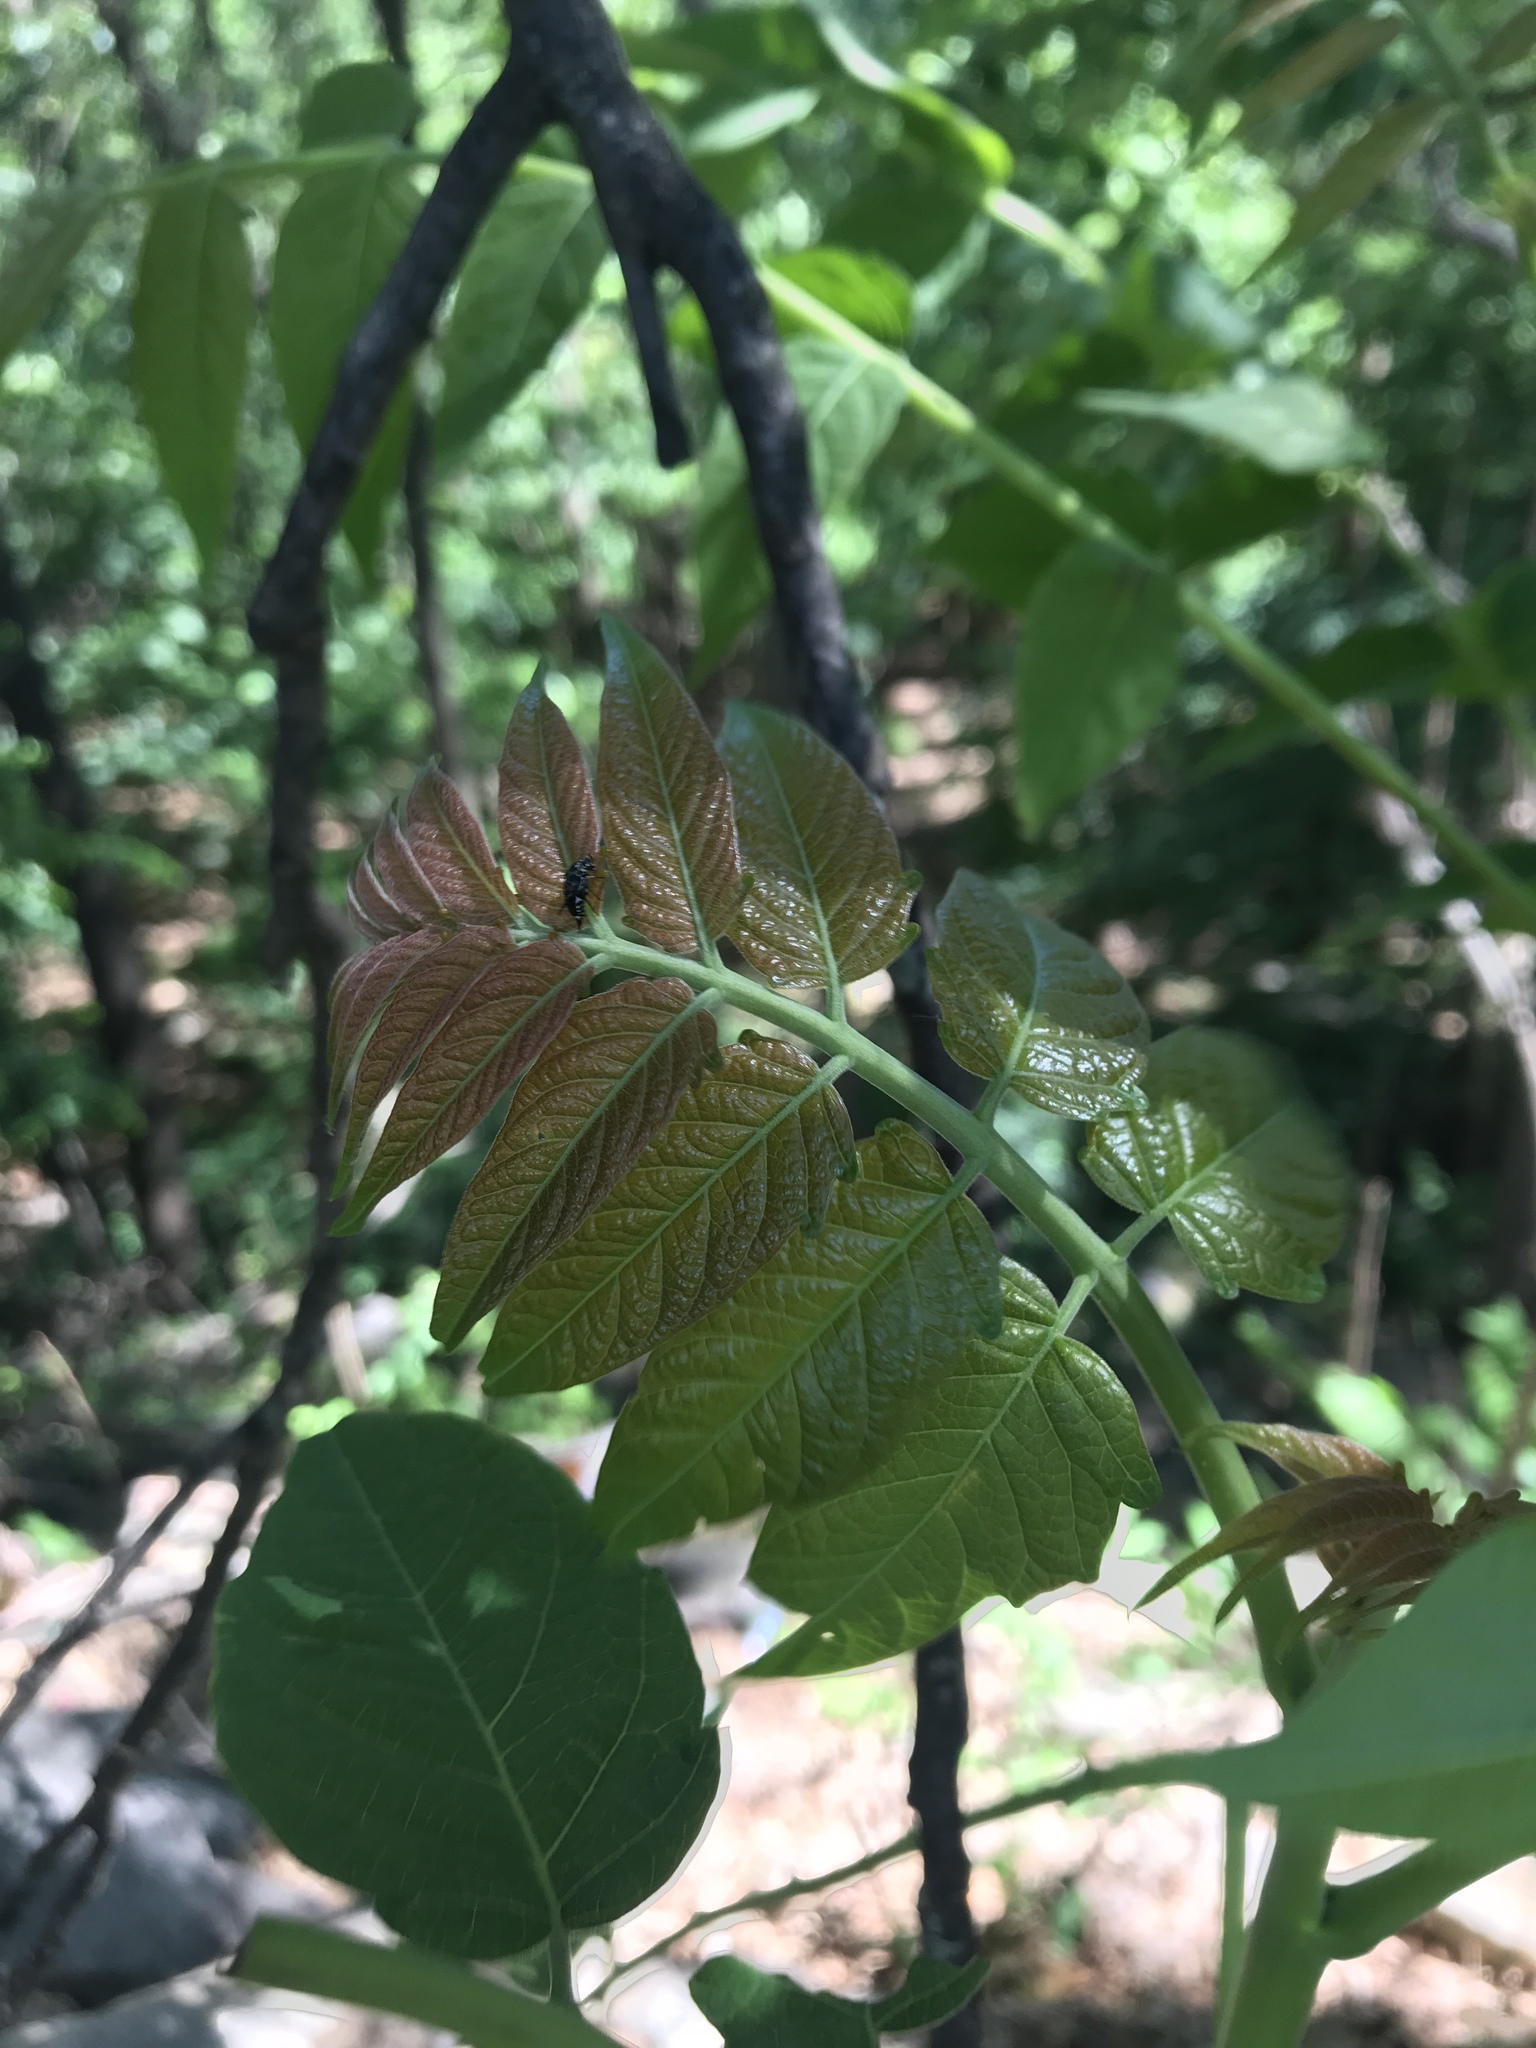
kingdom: Plantae
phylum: Tracheophyta
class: Magnoliopsida
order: Sapindales
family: Simaroubaceae
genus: Ailanthus
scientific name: Ailanthus altissima
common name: Tree-of-heaven
